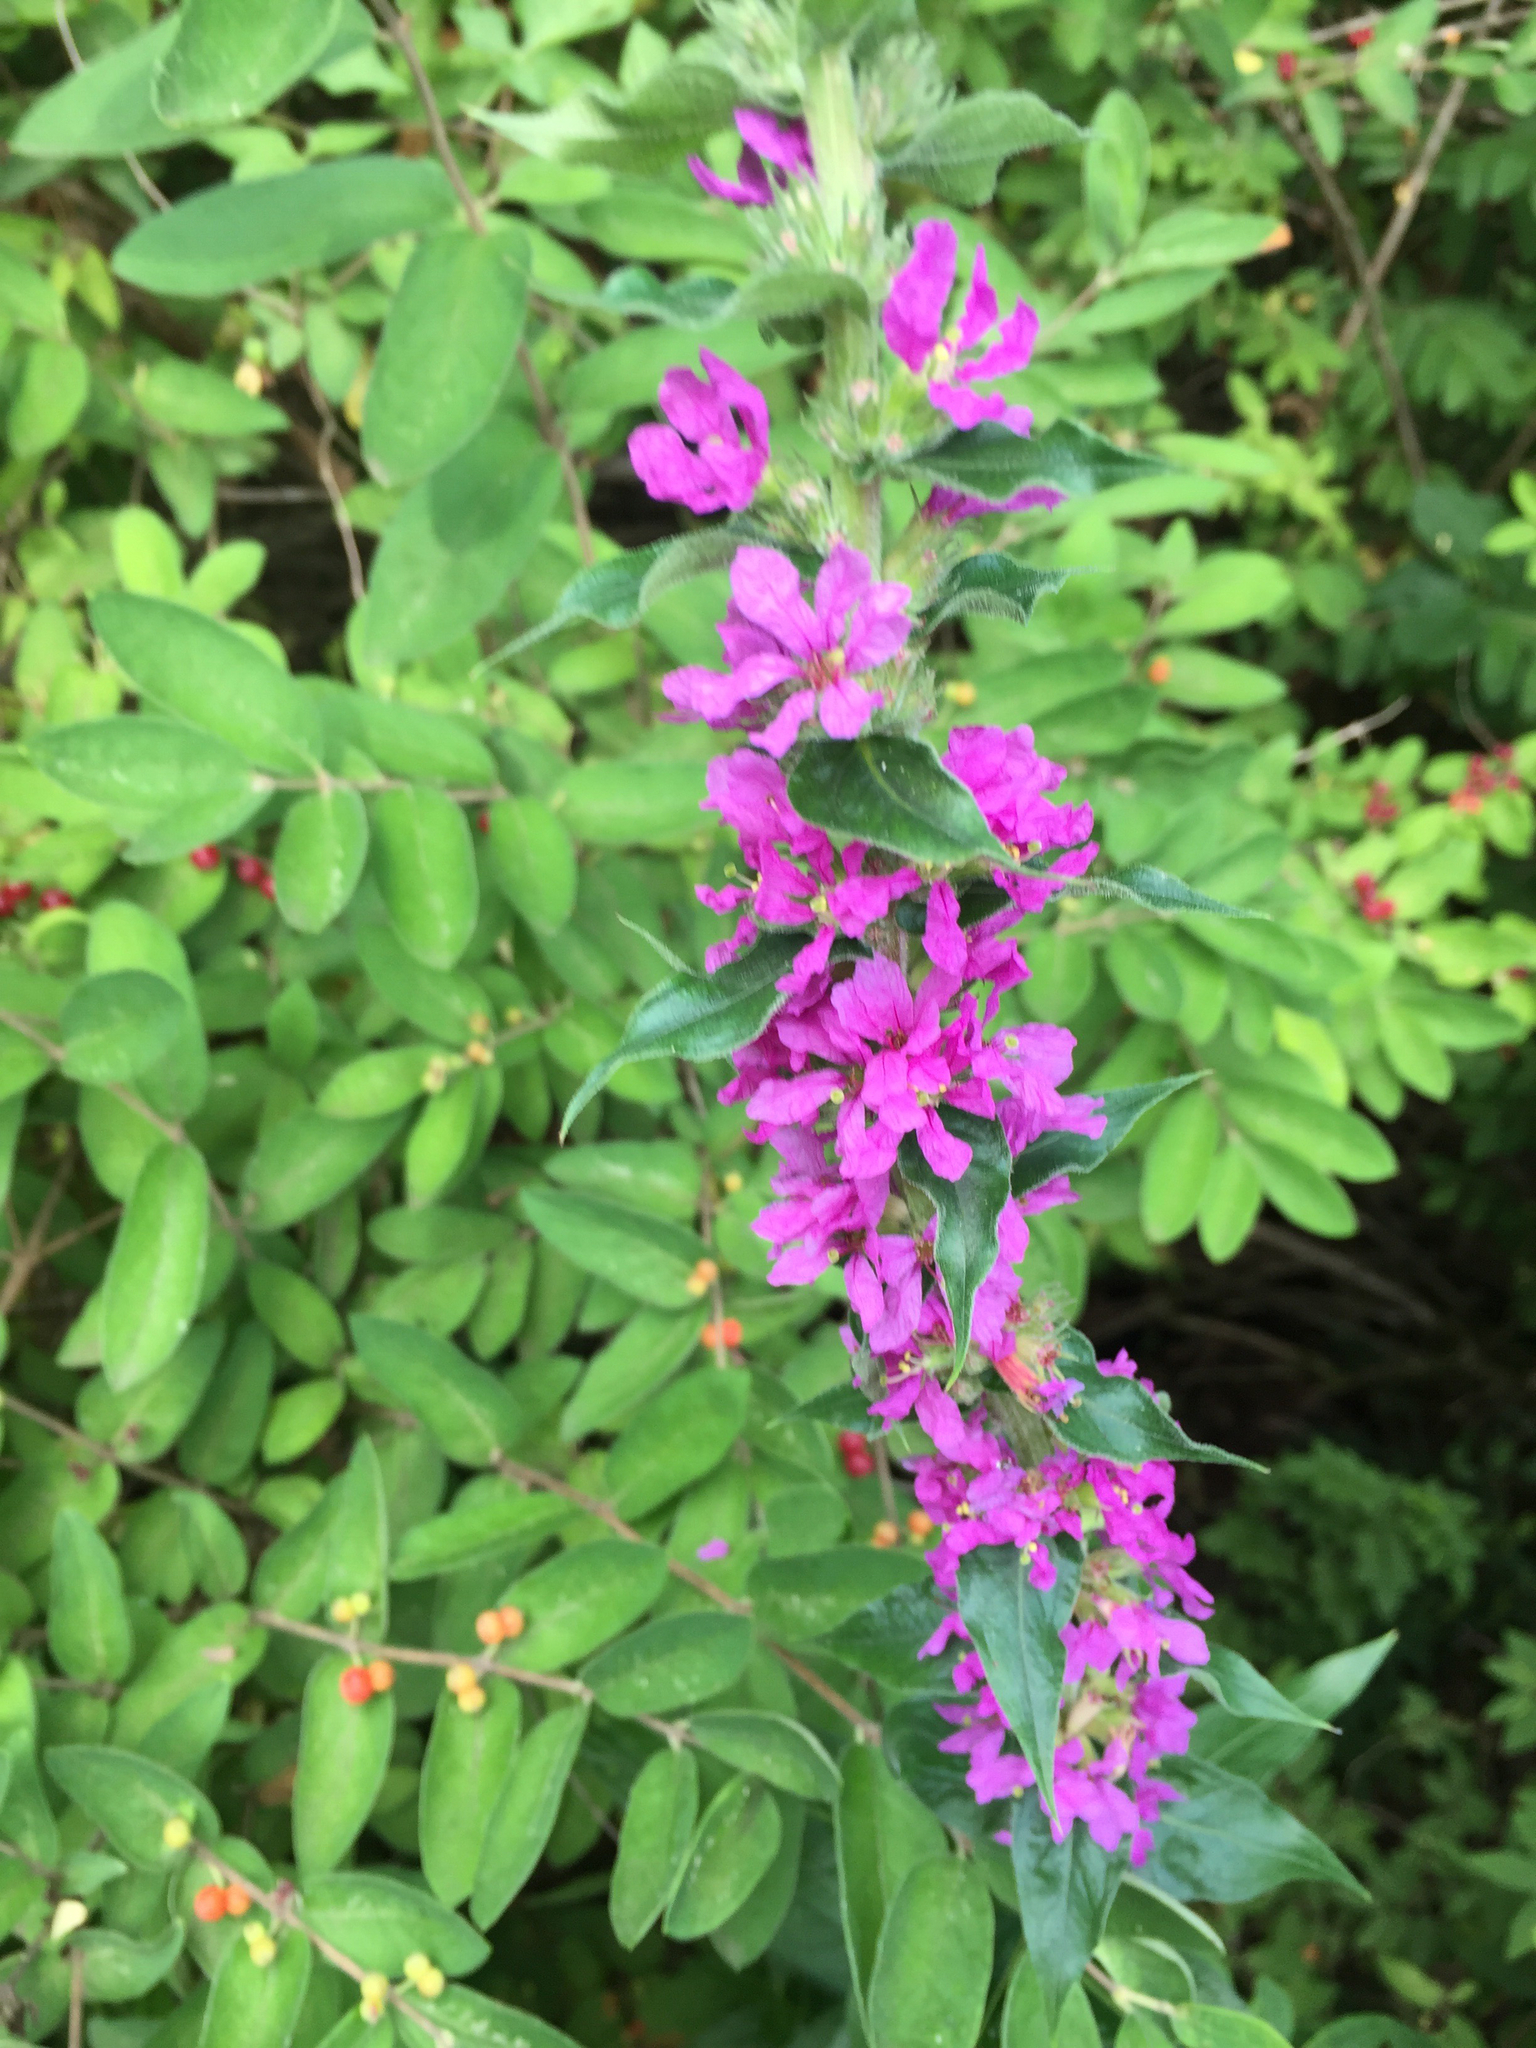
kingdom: Plantae
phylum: Tracheophyta
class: Magnoliopsida
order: Myrtales
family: Lythraceae
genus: Lythrum
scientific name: Lythrum salicaria
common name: Purple loosestrife
